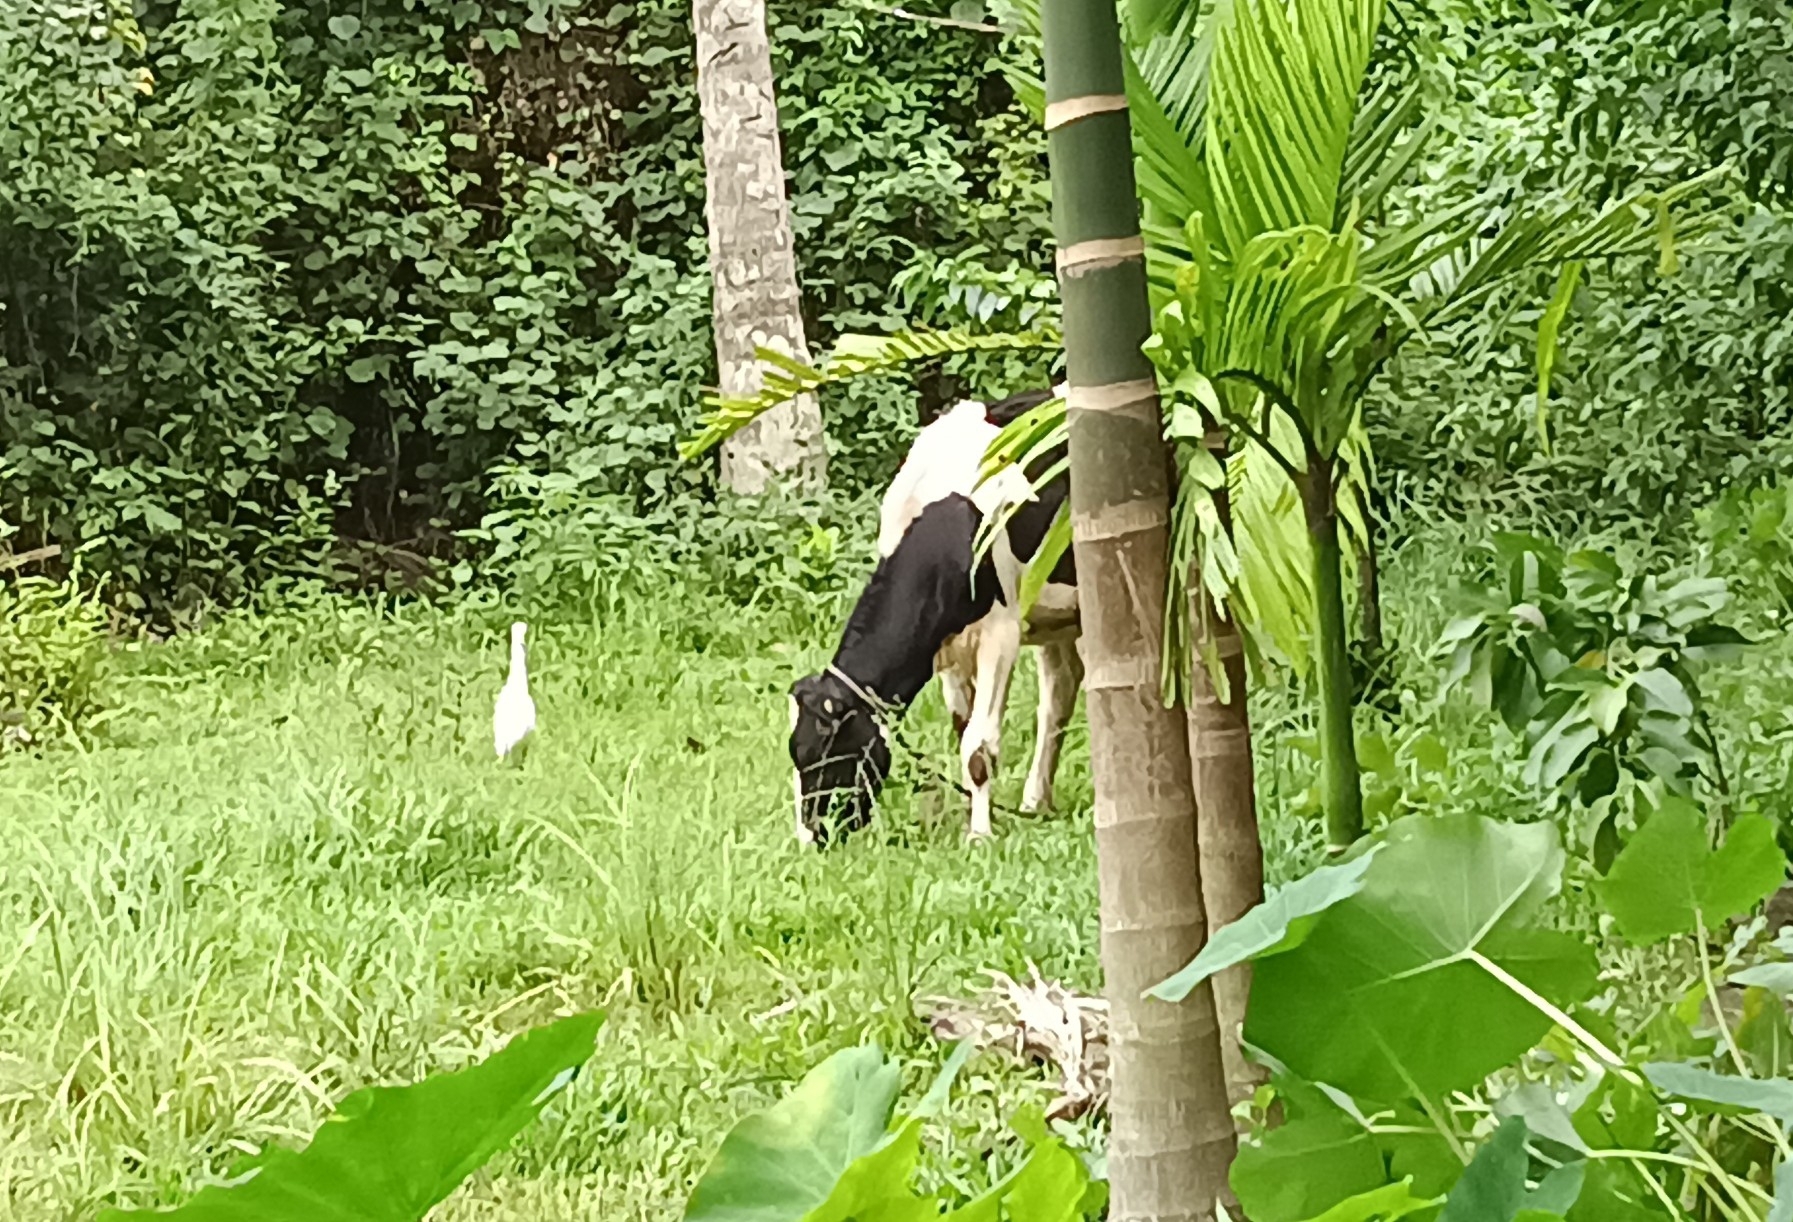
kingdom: Animalia
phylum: Chordata
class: Aves
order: Pelecaniformes
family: Ardeidae
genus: Bubulcus
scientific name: Bubulcus coromandus
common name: Eastern cattle egret
